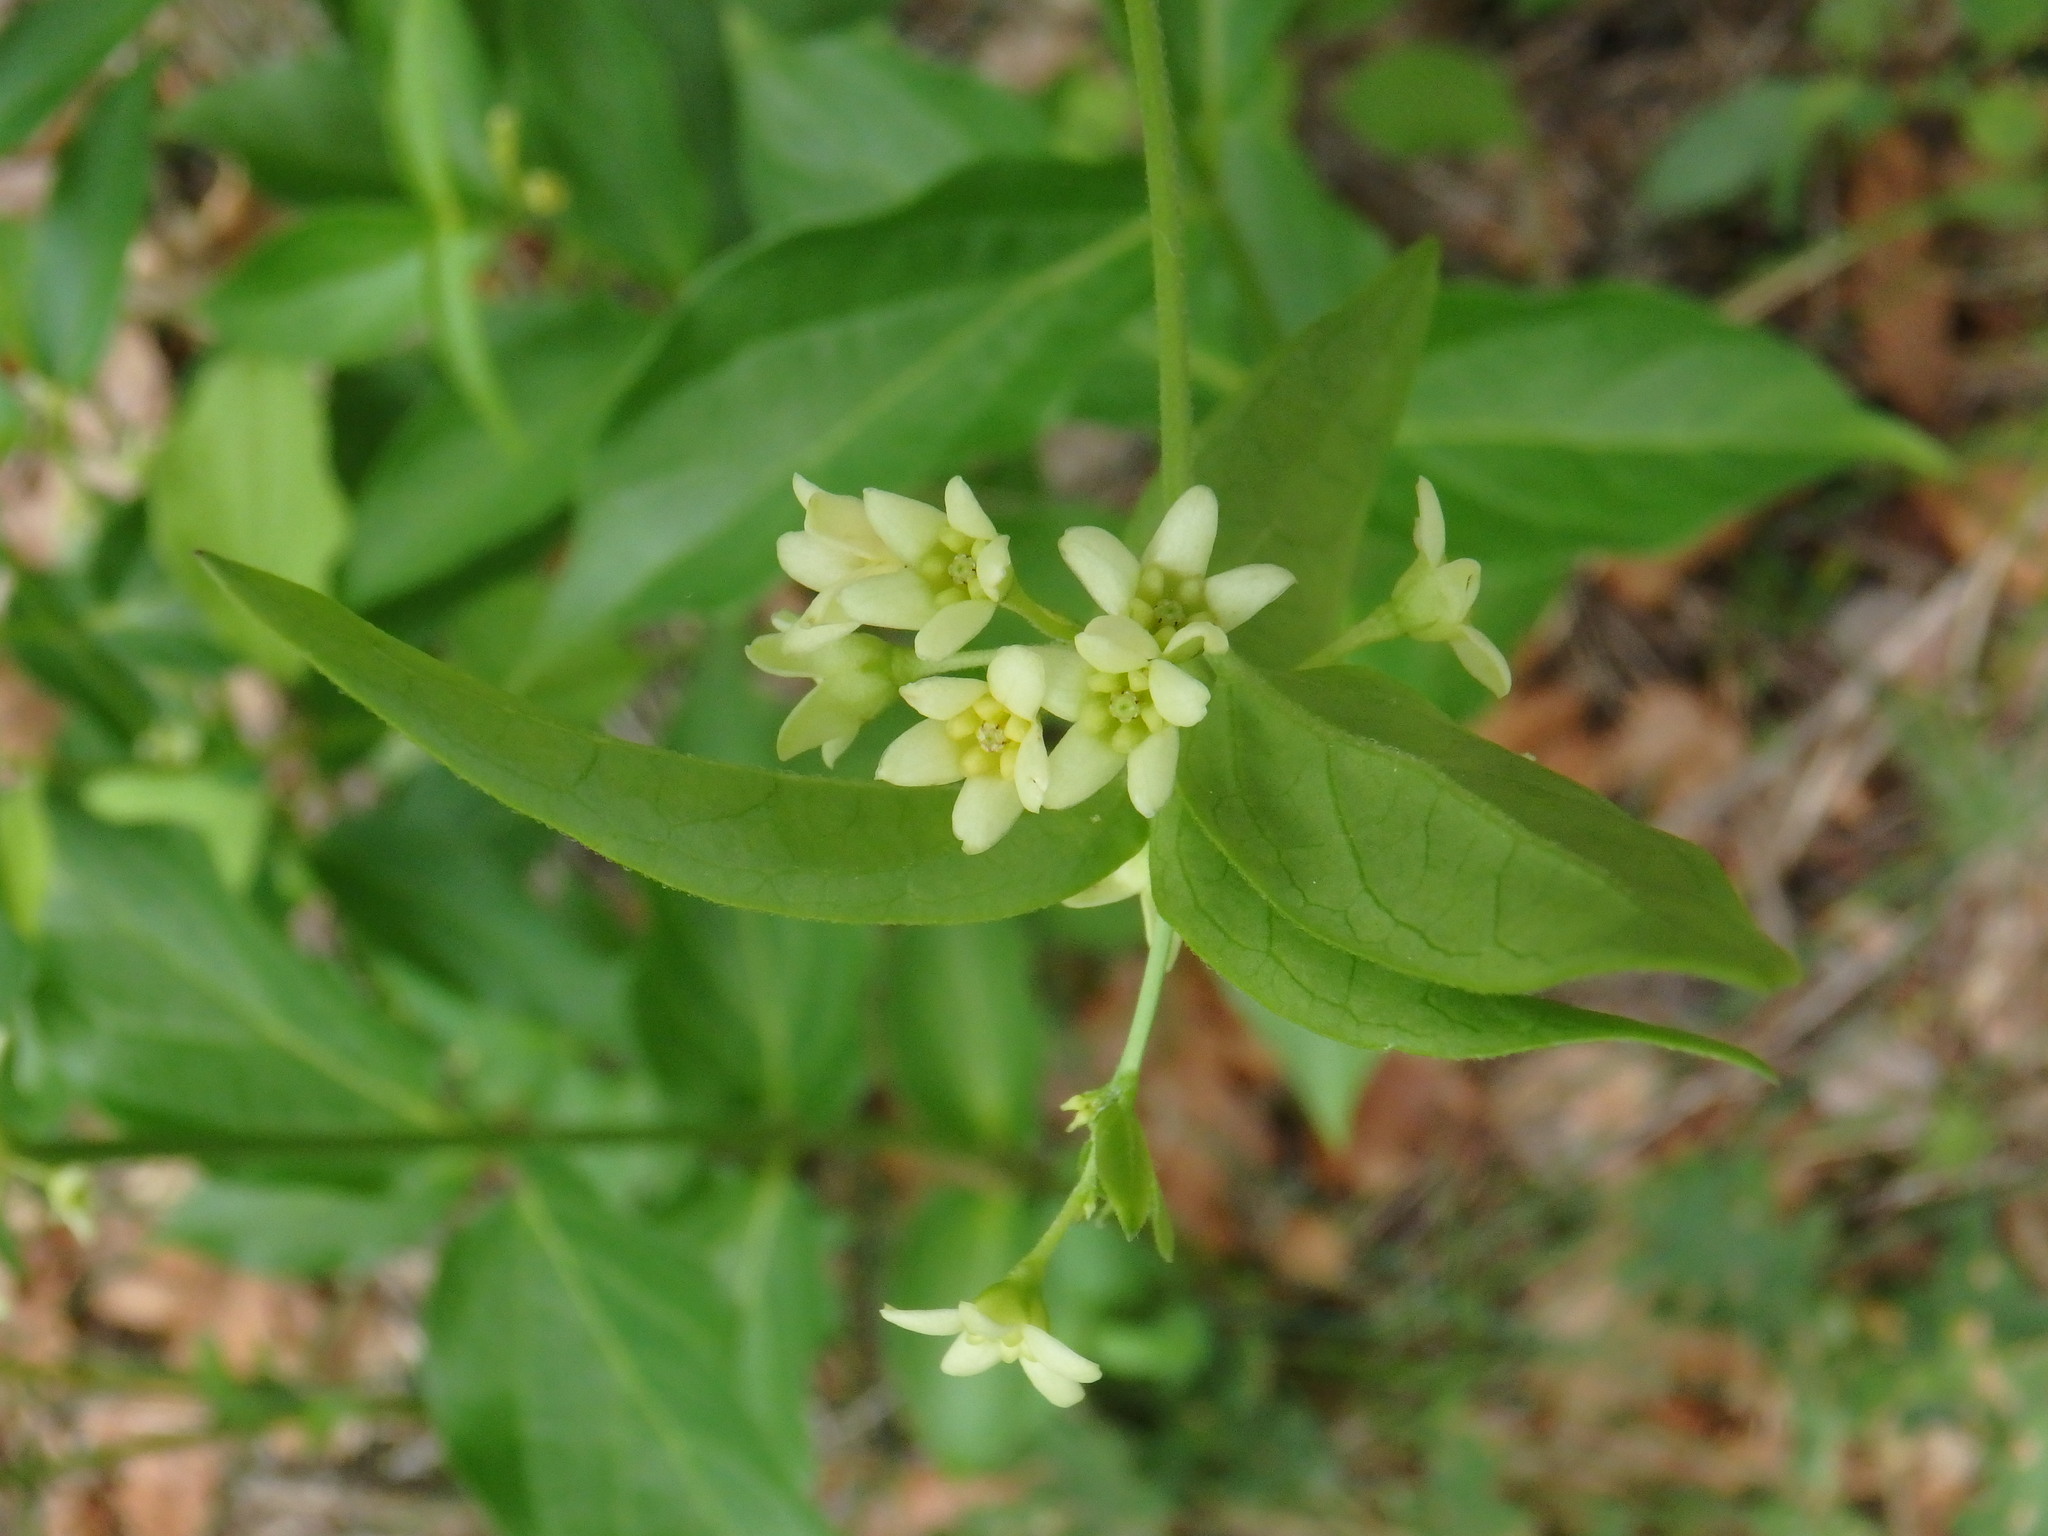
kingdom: Plantae
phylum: Tracheophyta
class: Magnoliopsida
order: Gentianales
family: Apocynaceae
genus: Vincetoxicum
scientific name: Vincetoxicum hirundinaria
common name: White swallowwort
